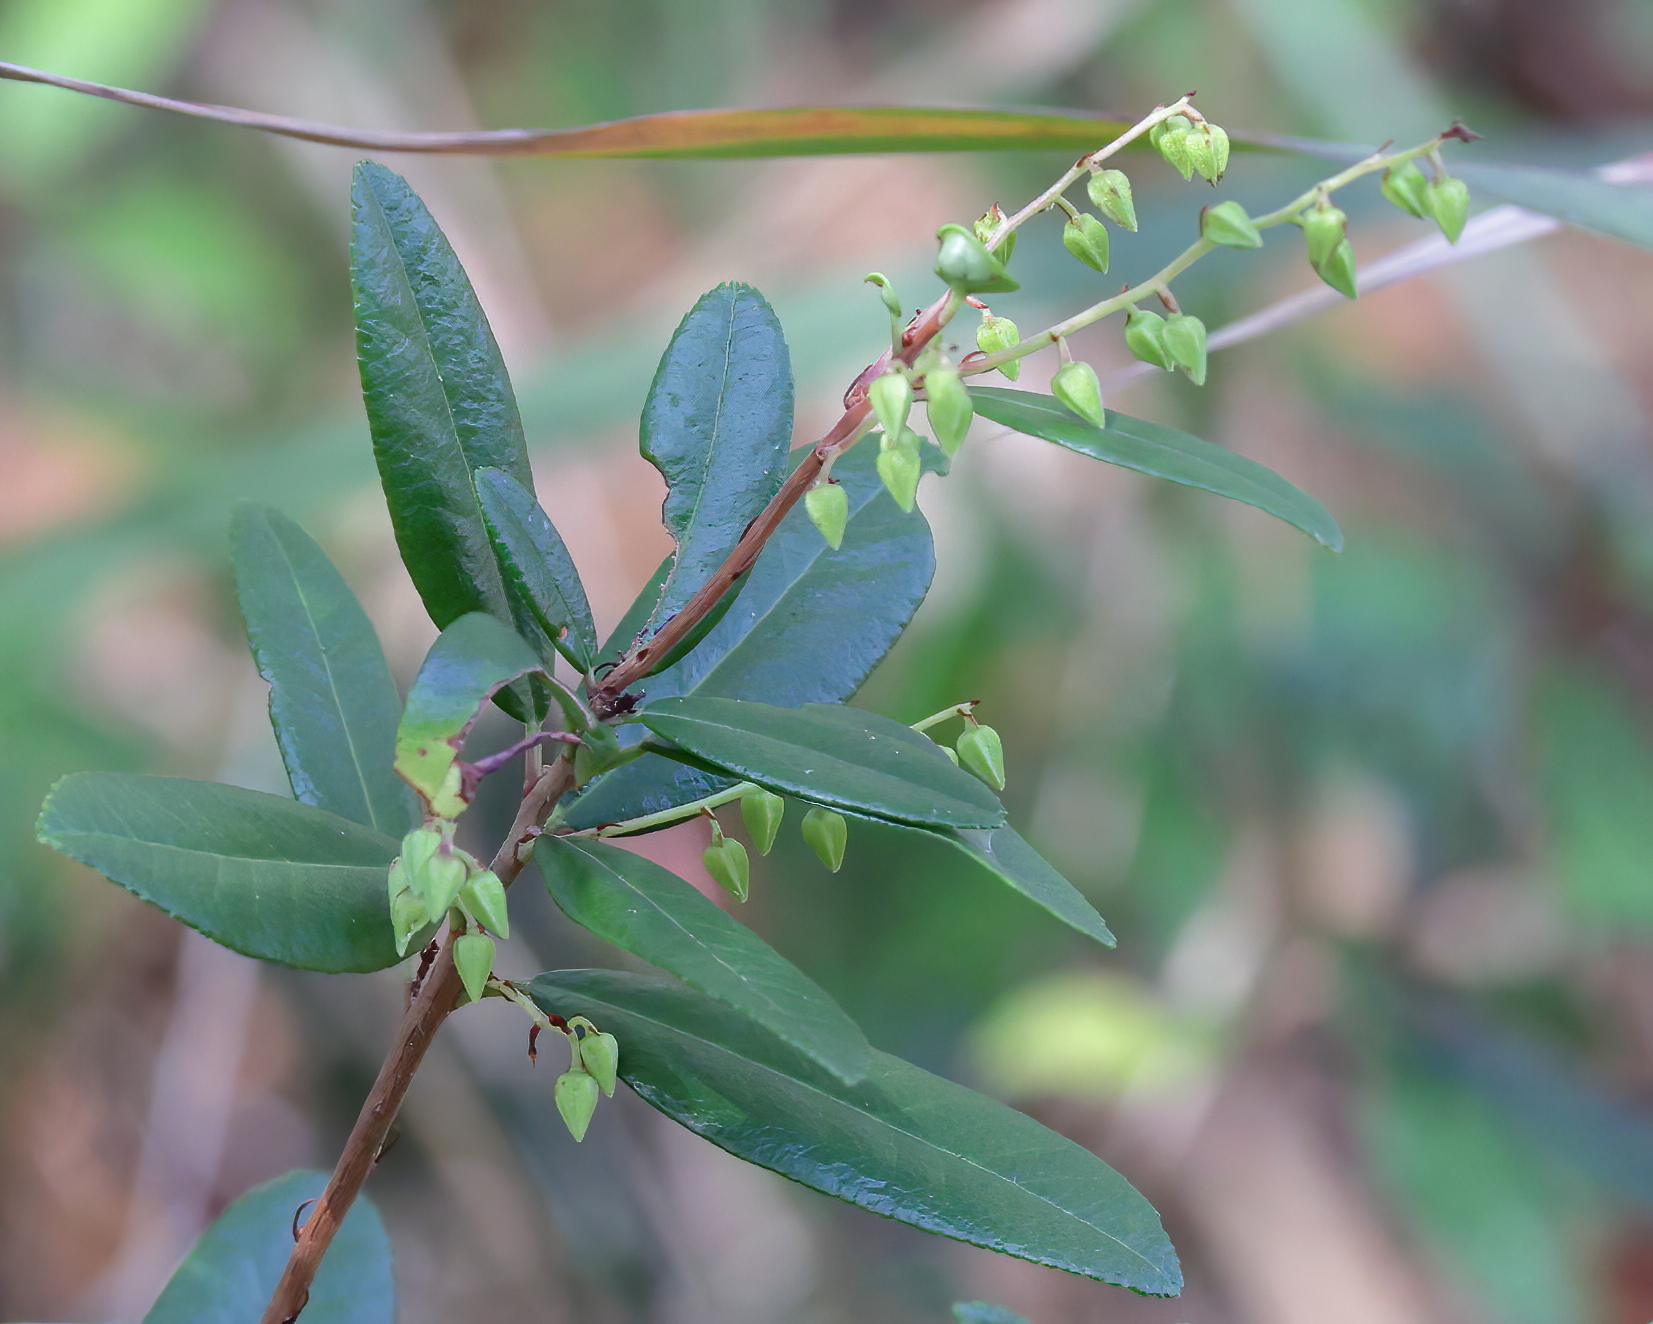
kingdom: Plantae
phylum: Tracheophyta
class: Magnoliopsida
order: Ericales
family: Ericaceae
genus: Pieris
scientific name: Pieris phillyreifolia
